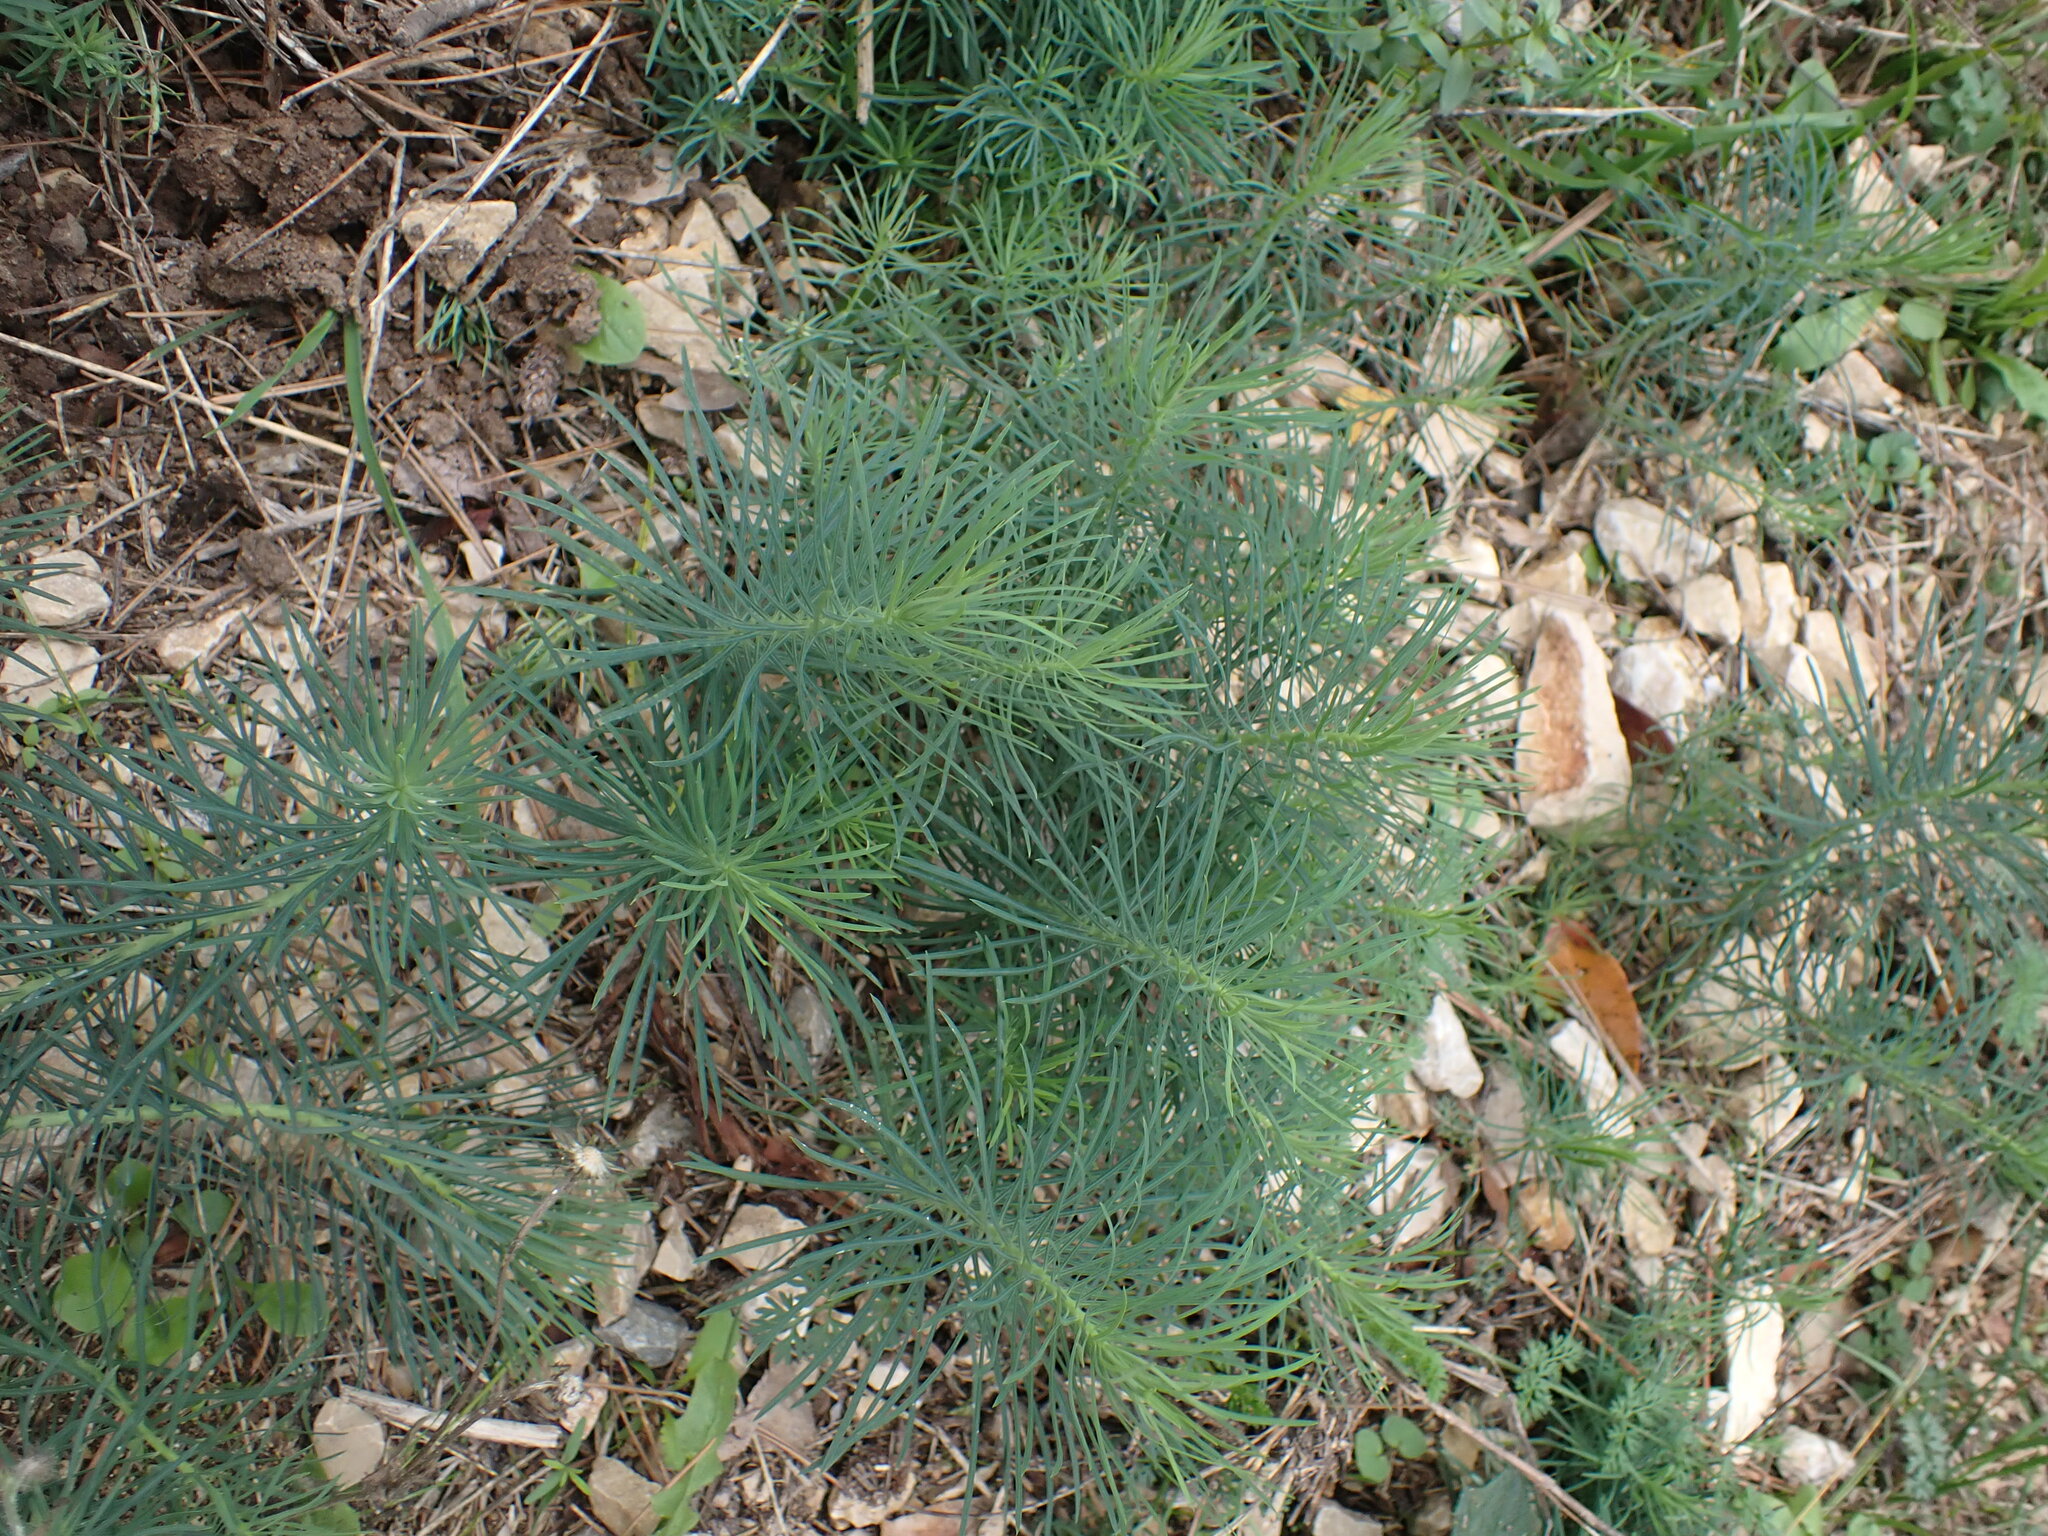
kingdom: Plantae
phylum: Tracheophyta
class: Magnoliopsida
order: Malpighiales
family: Euphorbiaceae
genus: Euphorbia
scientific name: Euphorbia cyparissias
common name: Cypress spurge
